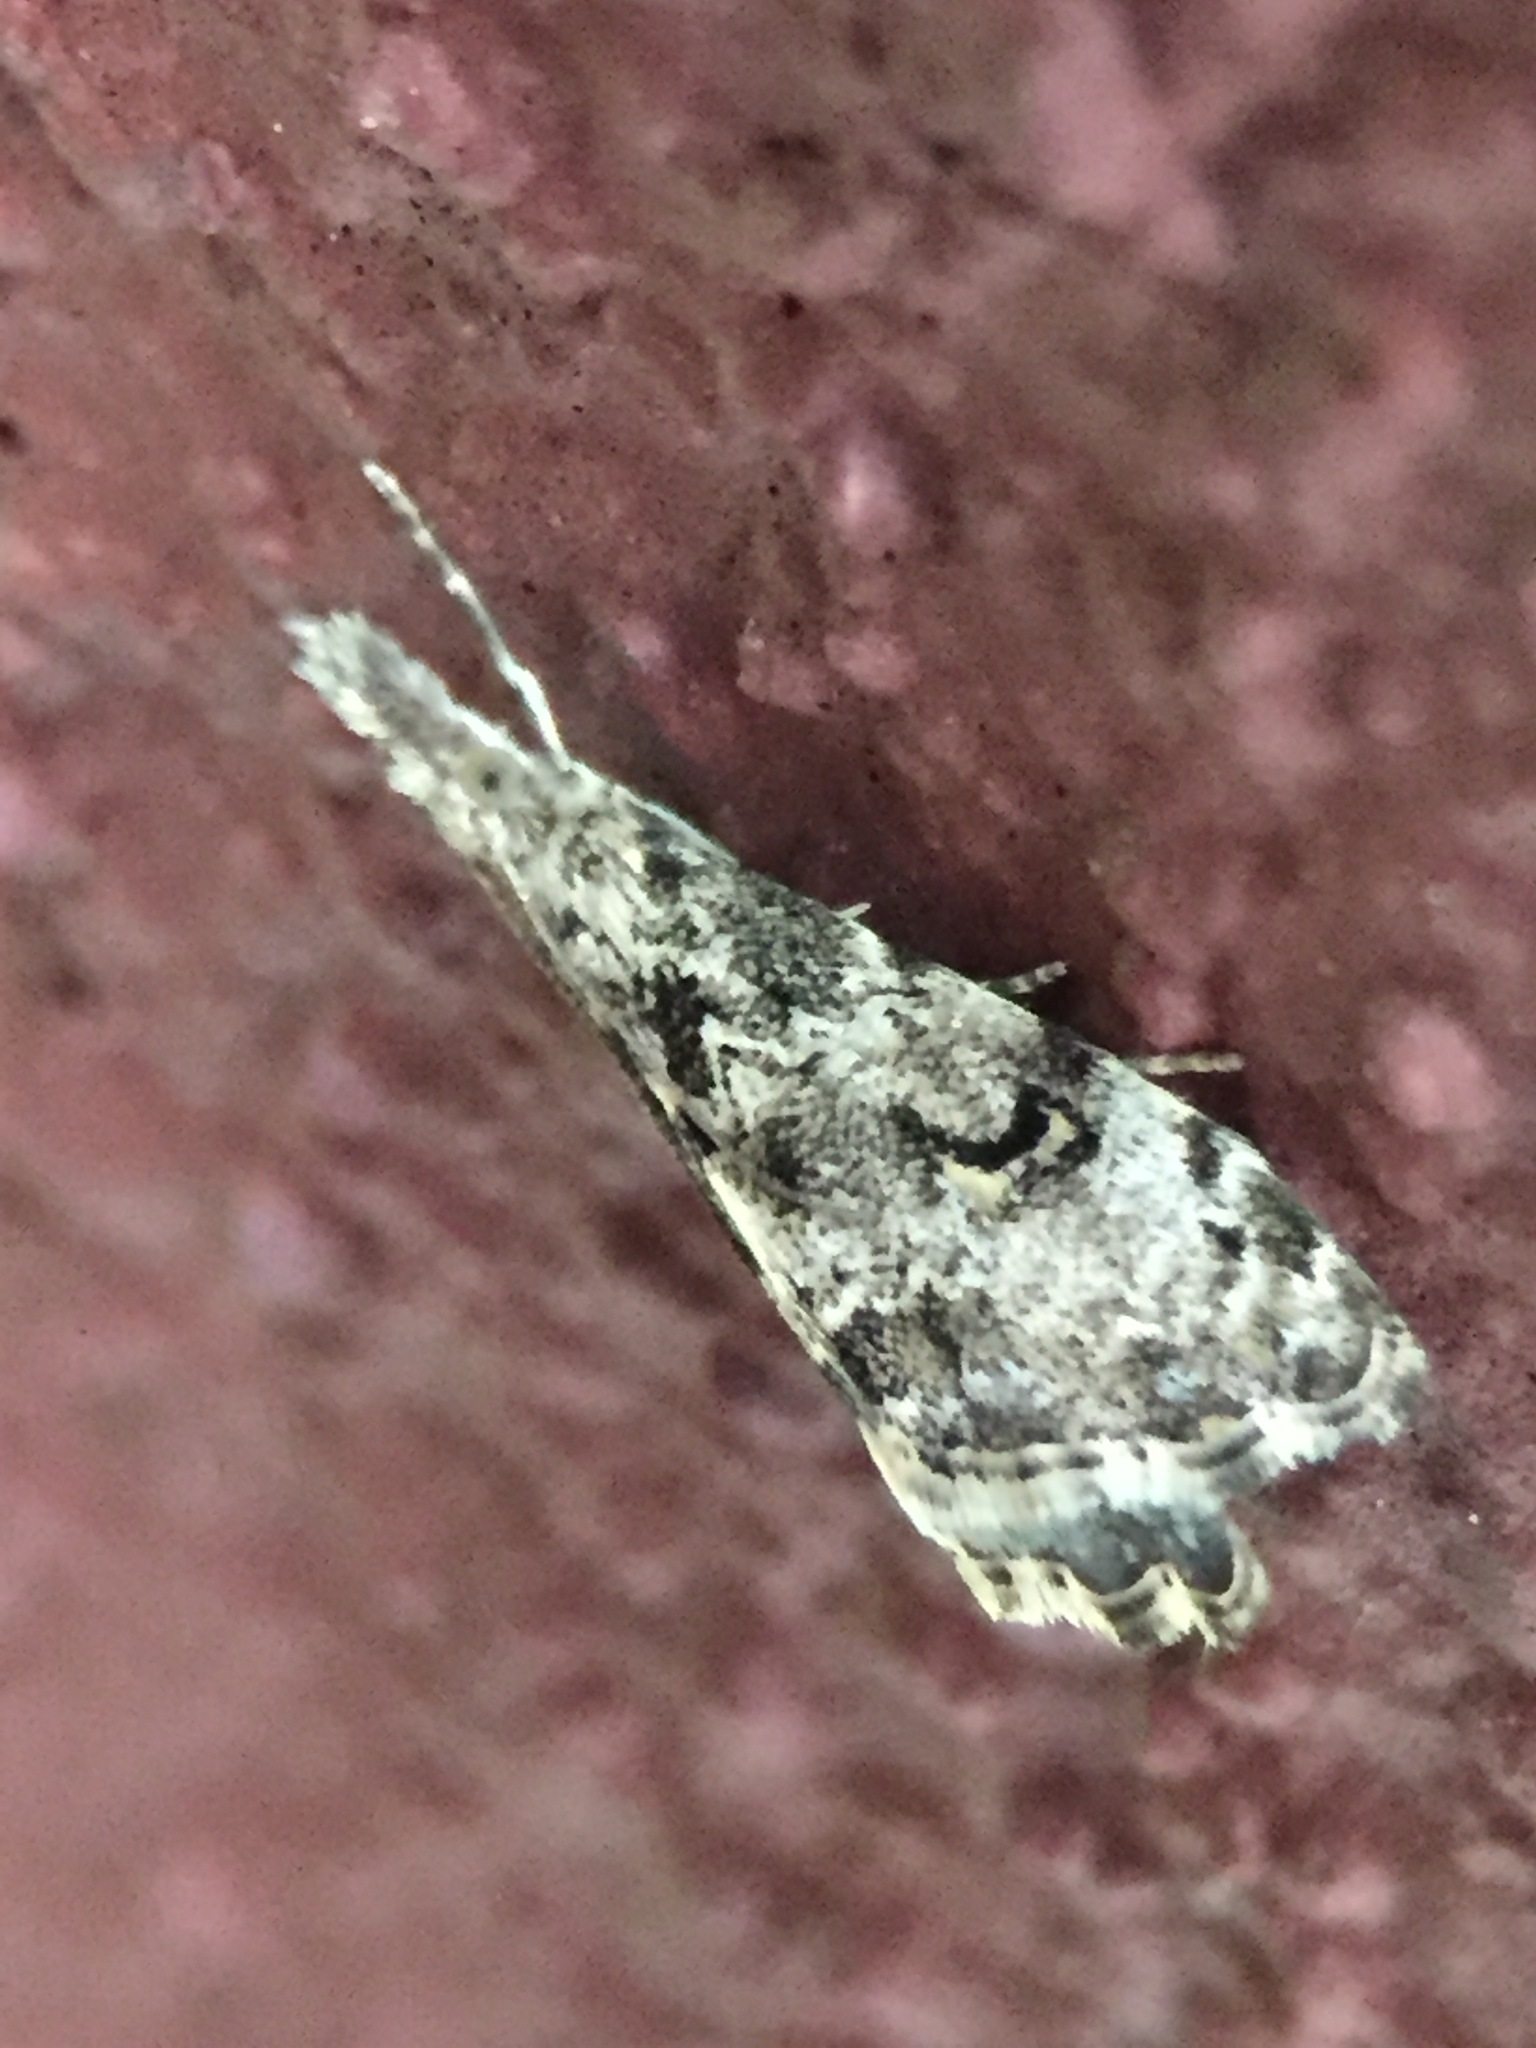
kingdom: Animalia
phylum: Arthropoda
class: Insecta
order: Lepidoptera
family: Crambidae
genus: Glaucocharis
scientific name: Glaucocharis elaina
